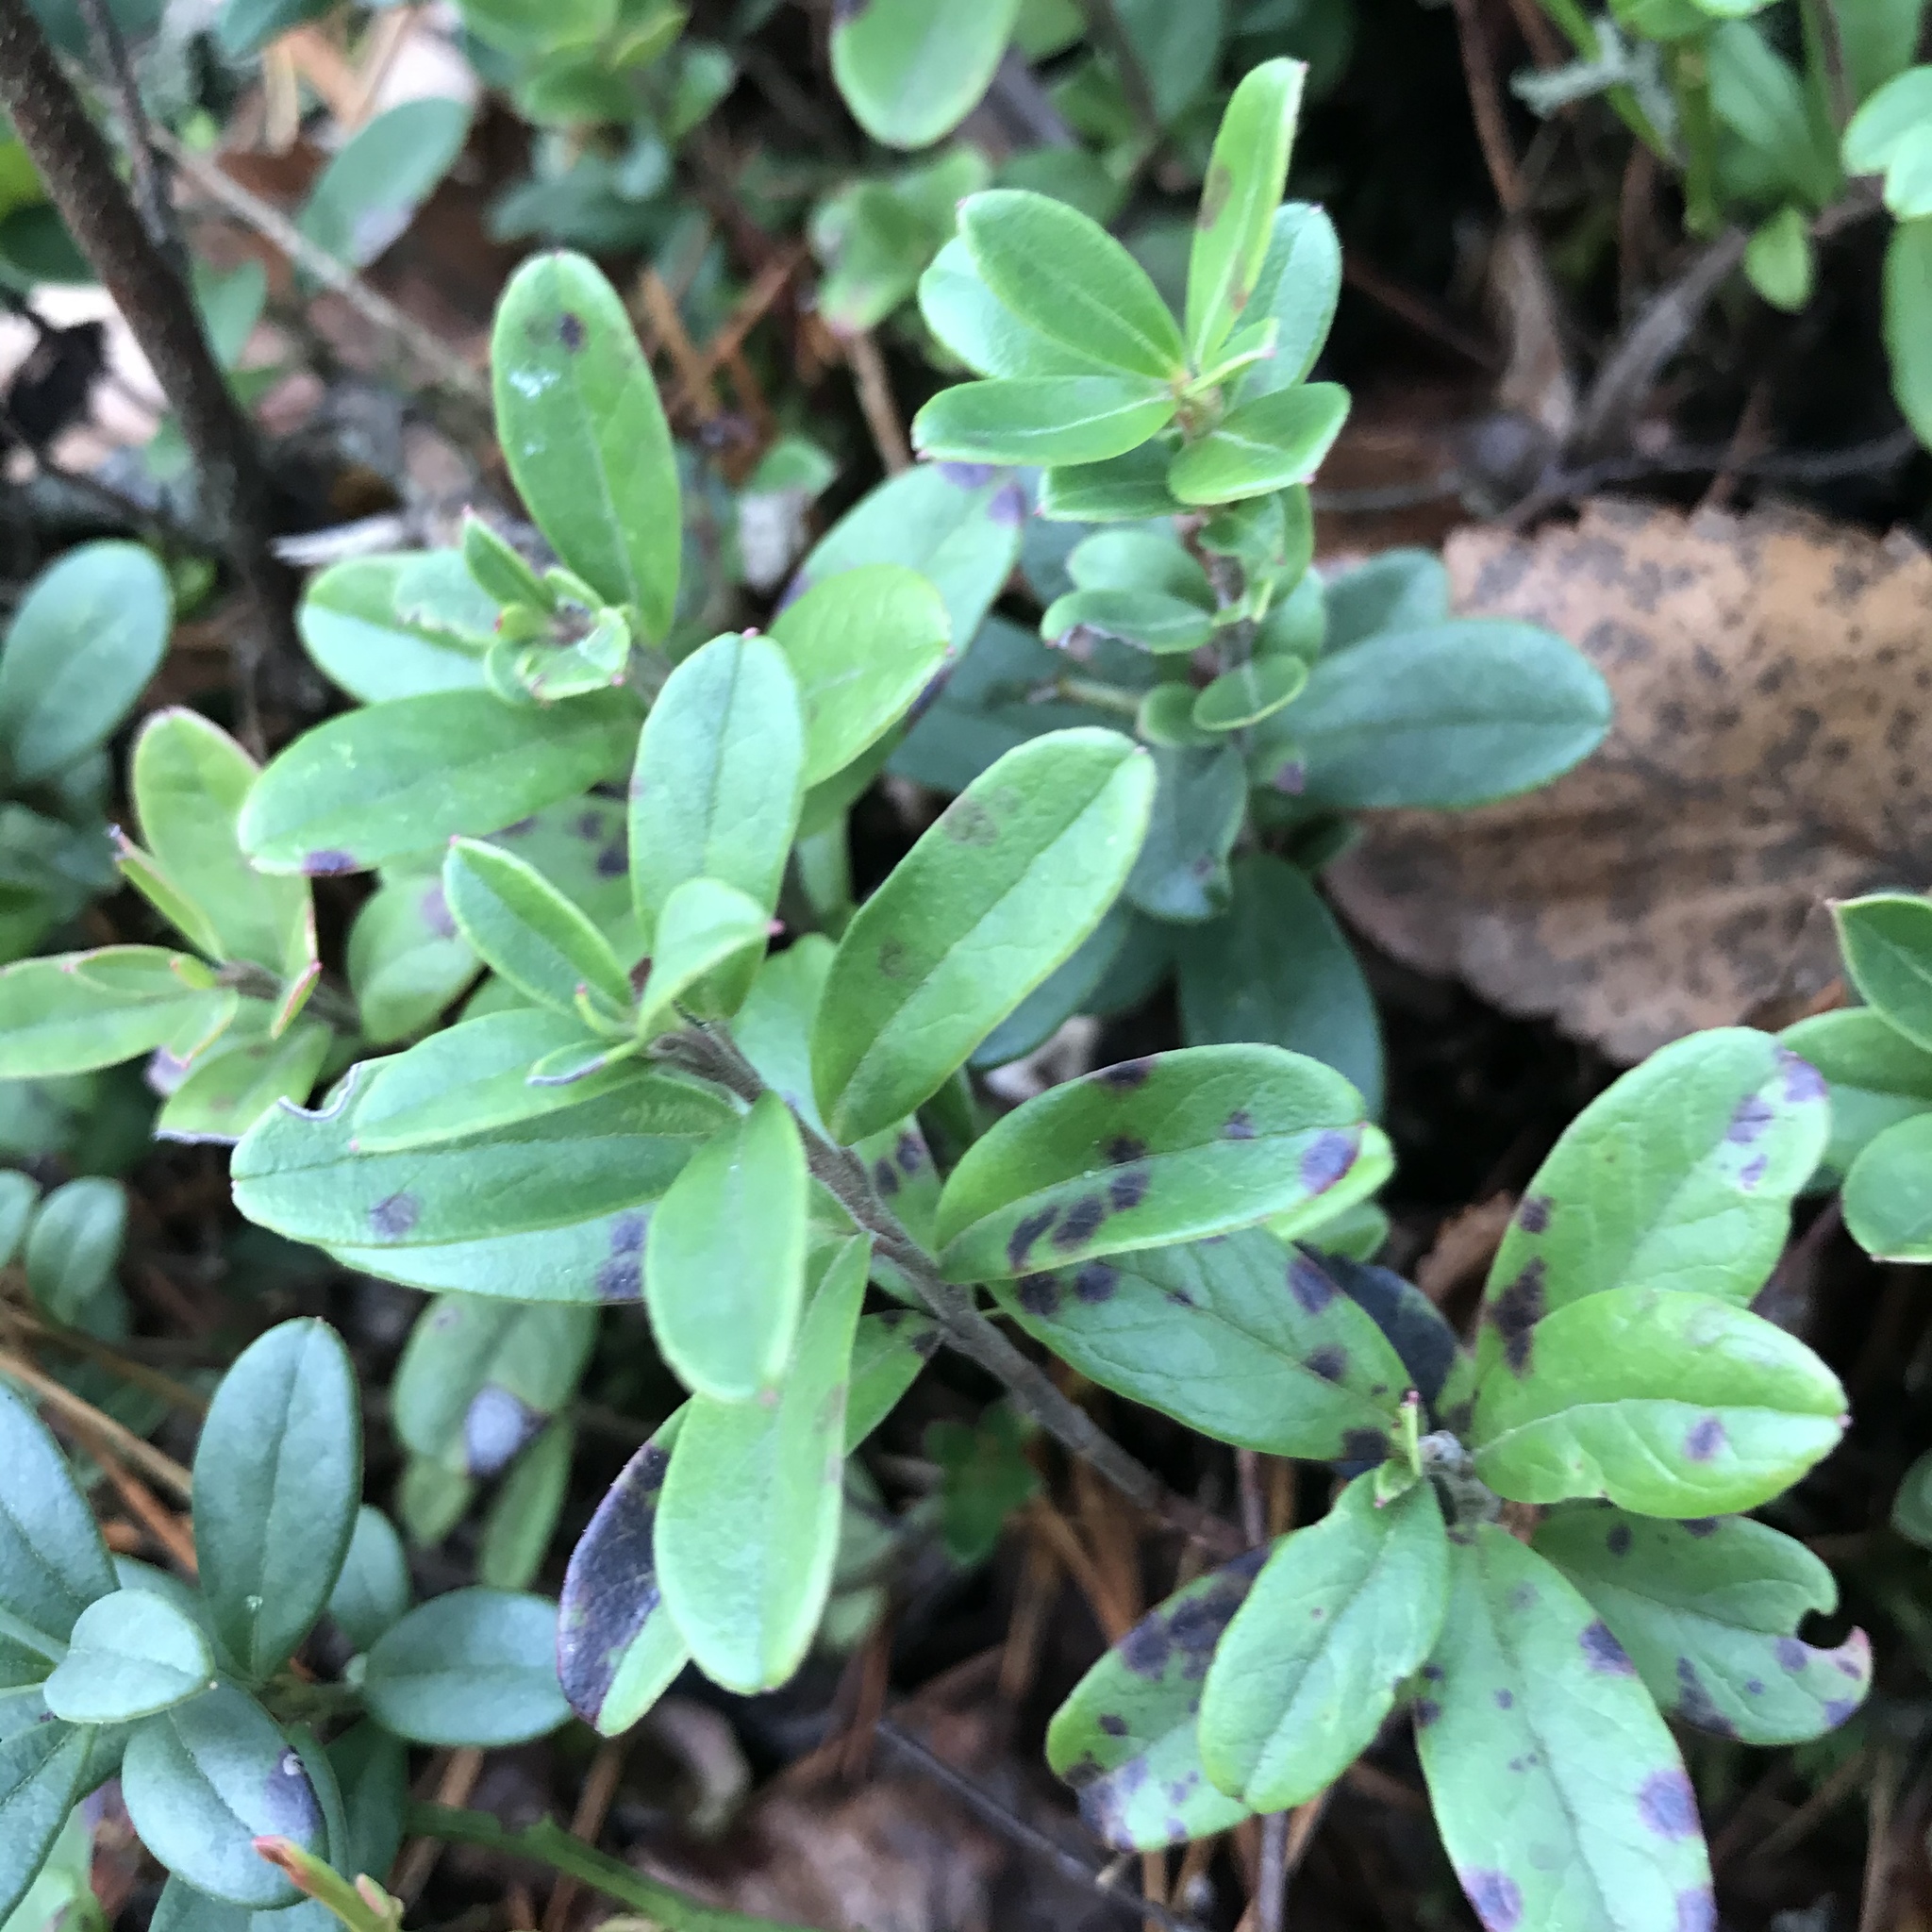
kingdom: Plantae
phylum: Tracheophyta
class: Magnoliopsida
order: Ericales
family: Ericaceae
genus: Vaccinium
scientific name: Vaccinium vitis-idaea
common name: Cowberry
